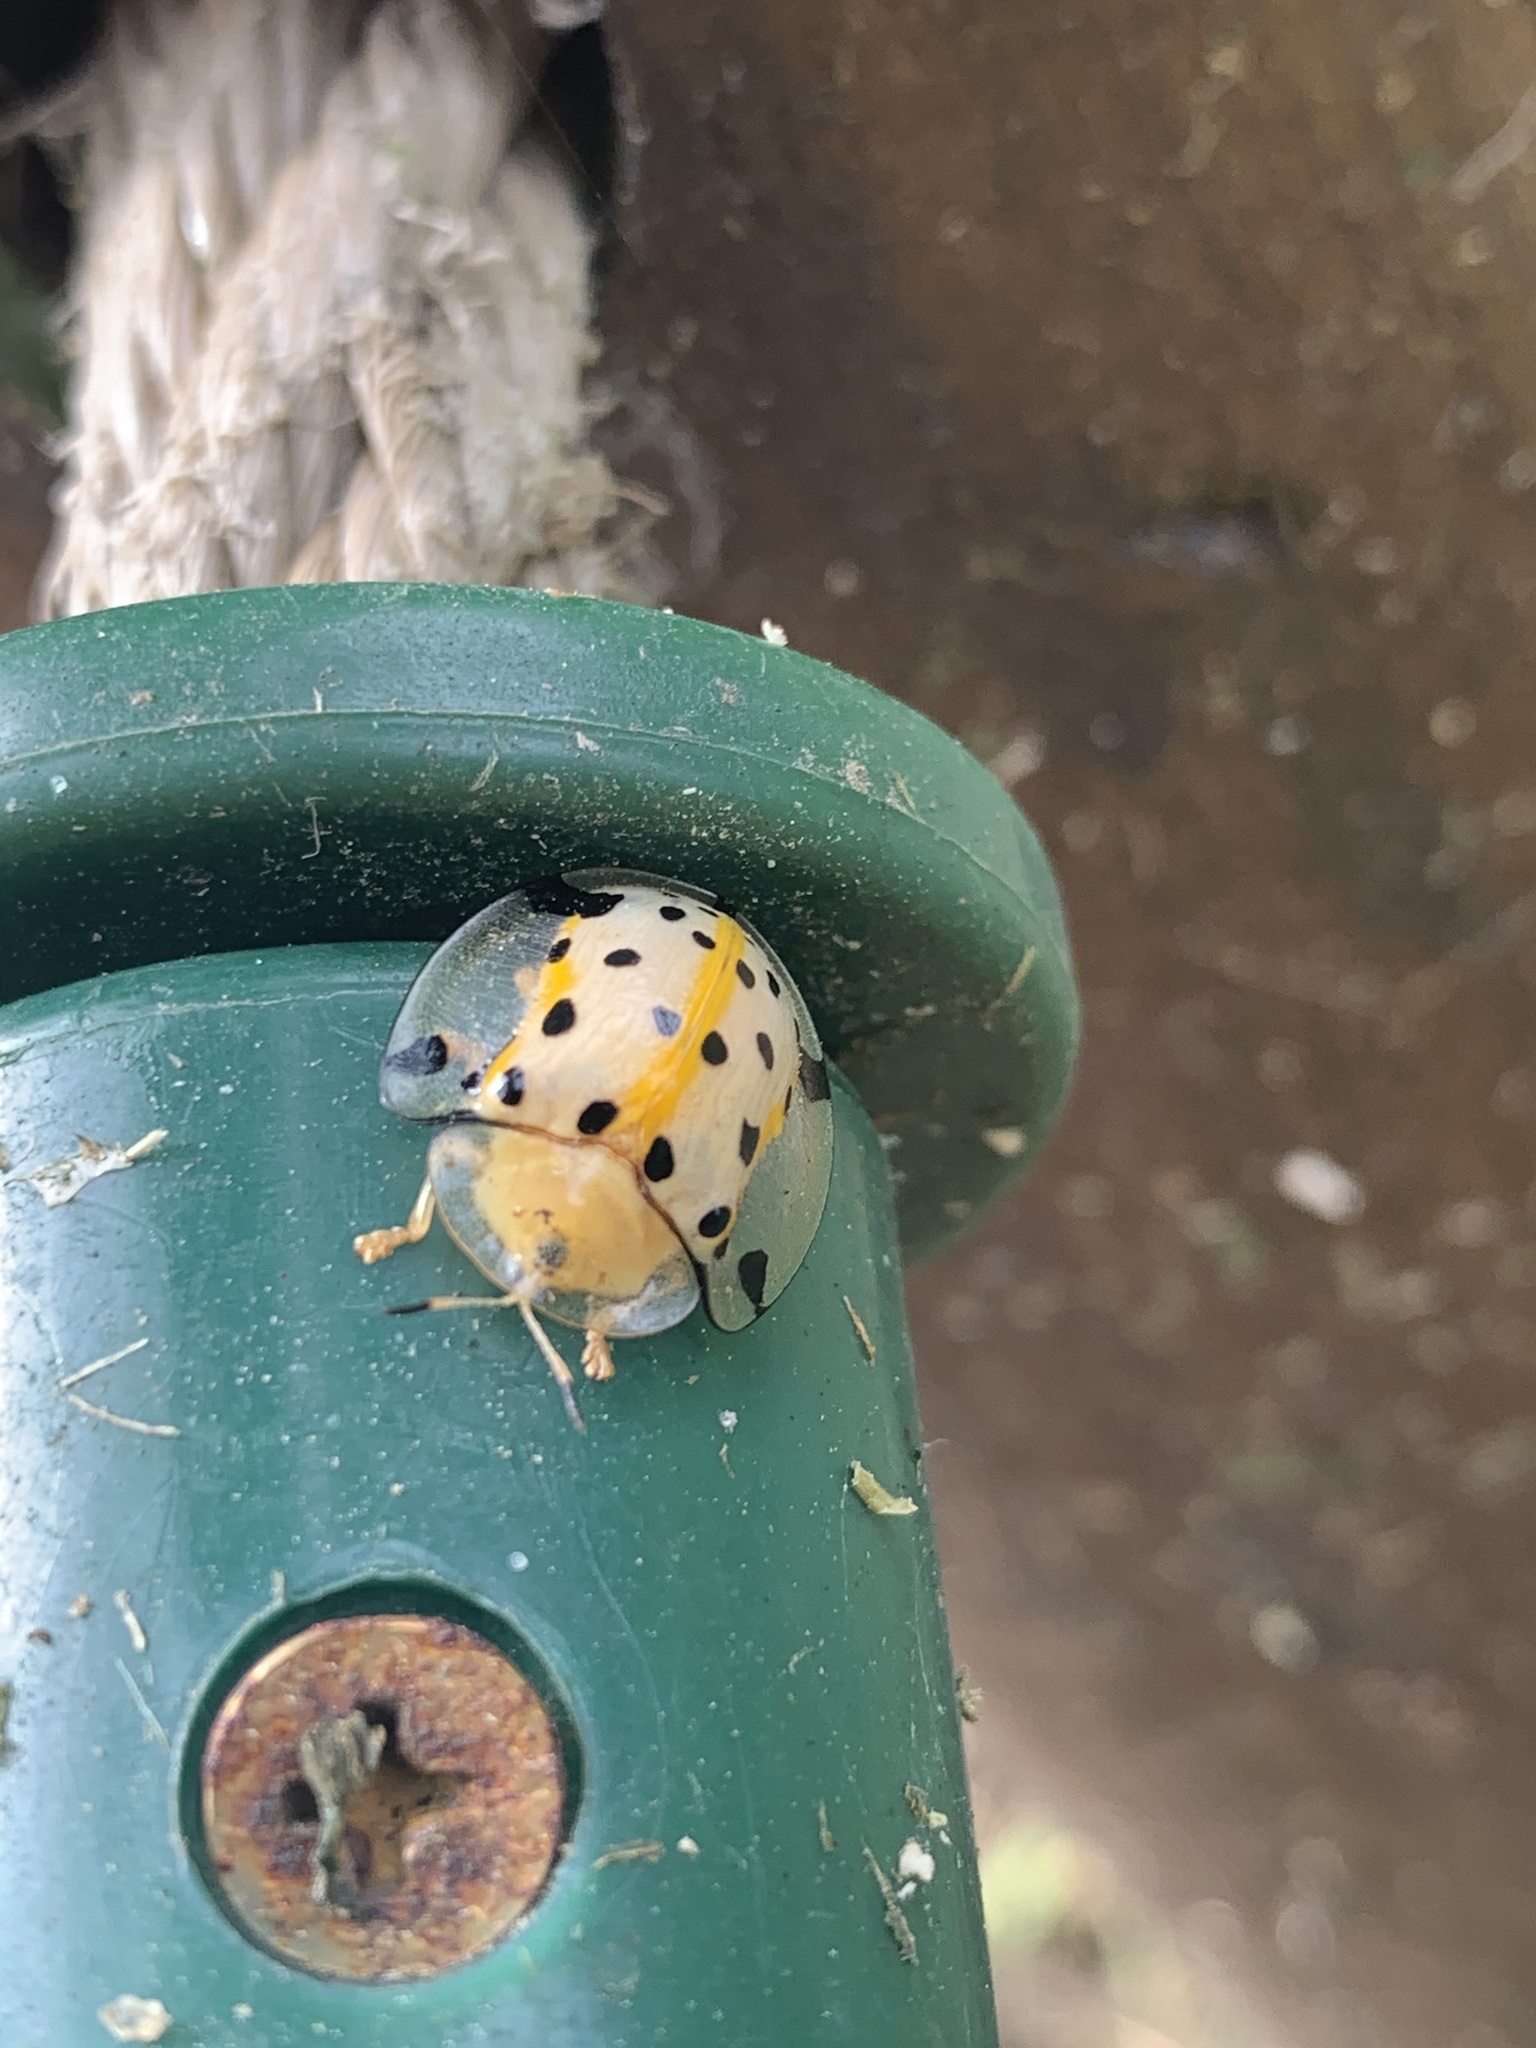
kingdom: Animalia
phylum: Arthropoda
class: Insecta
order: Coleoptera
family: Chrysomelidae
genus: Aspidimorpha
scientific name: Aspidimorpha miliaris
